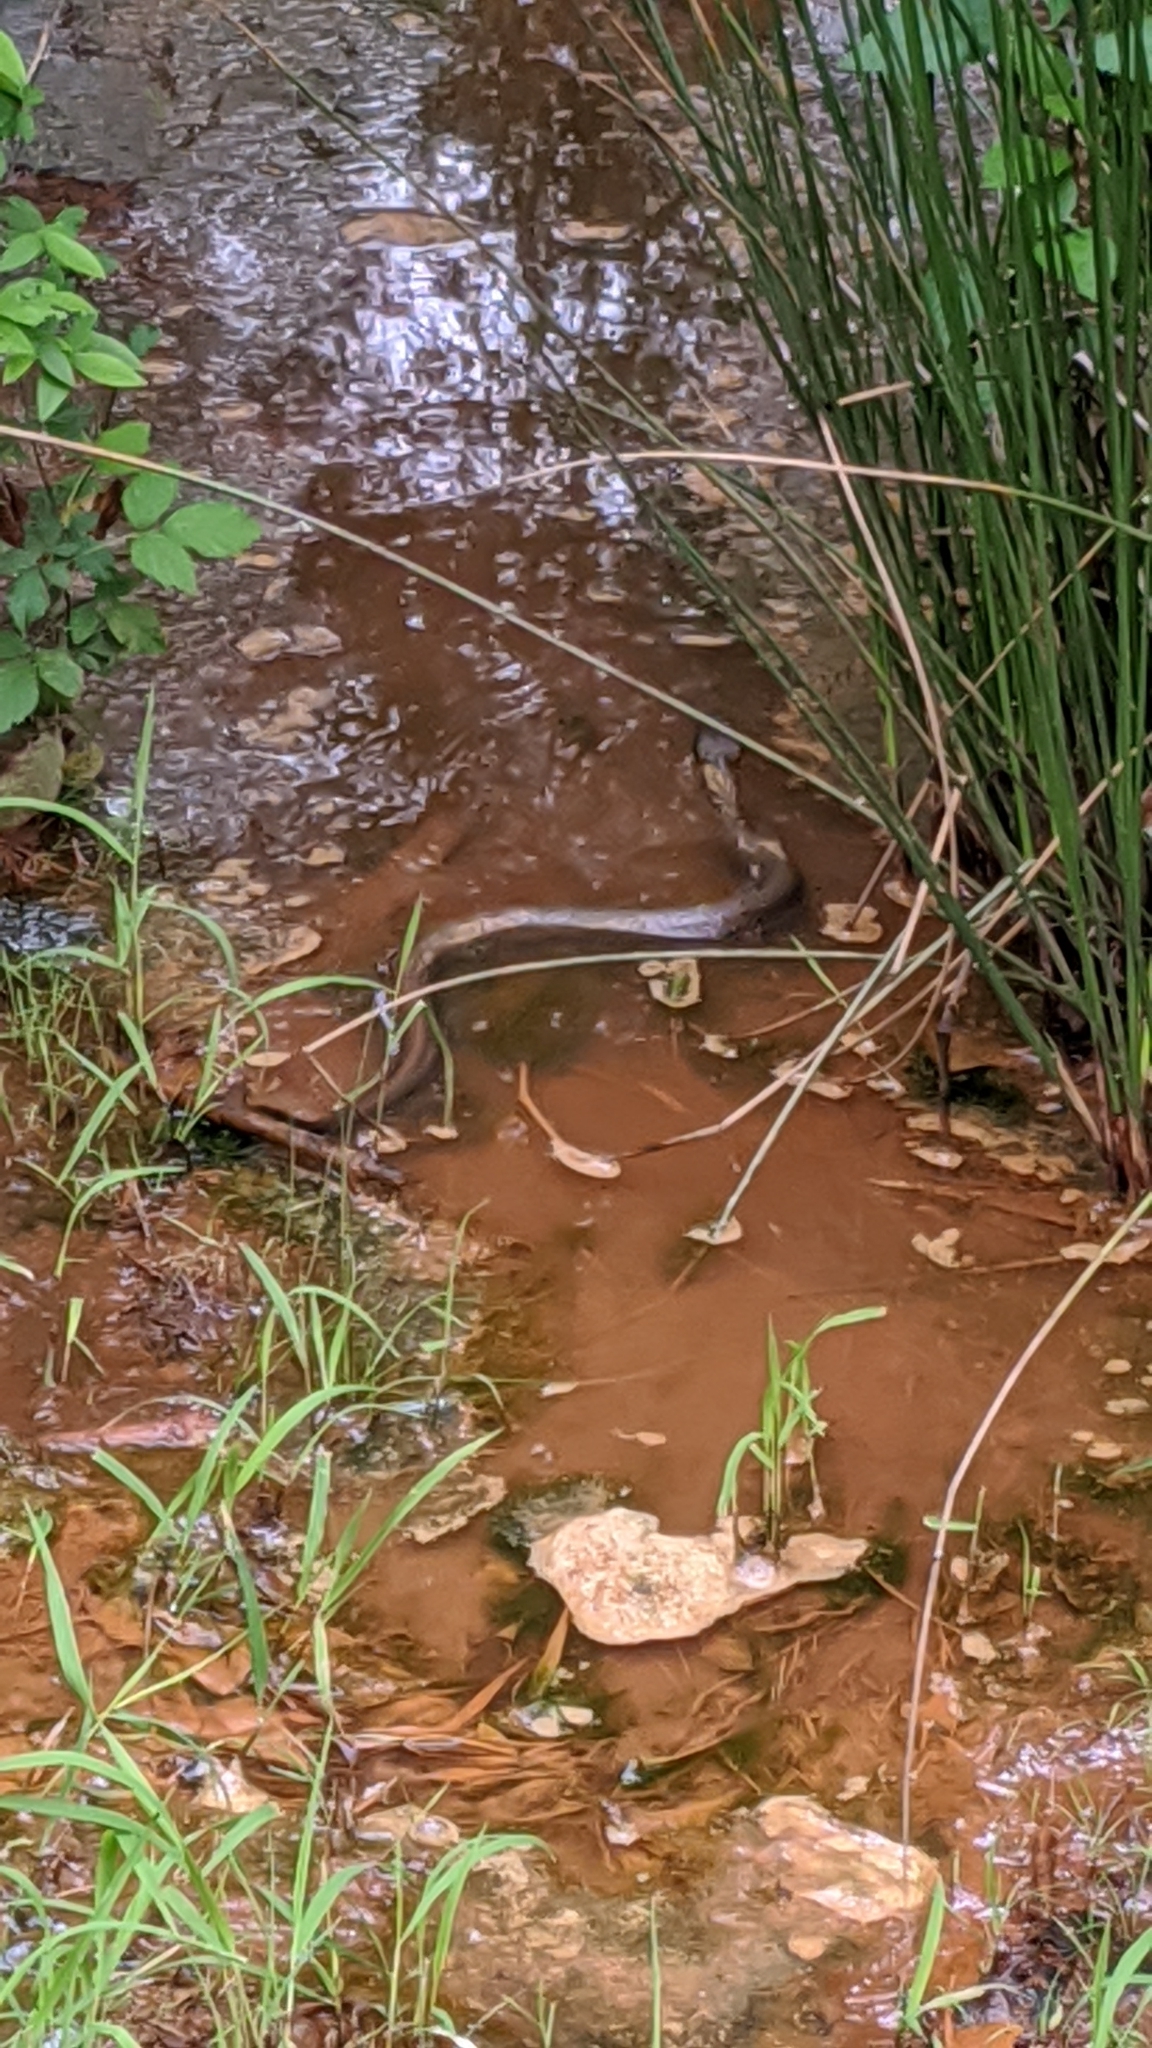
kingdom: Animalia
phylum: Chordata
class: Squamata
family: Viperidae
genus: Agkistrodon
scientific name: Agkistrodon piscivorus
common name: Cottonmouth
